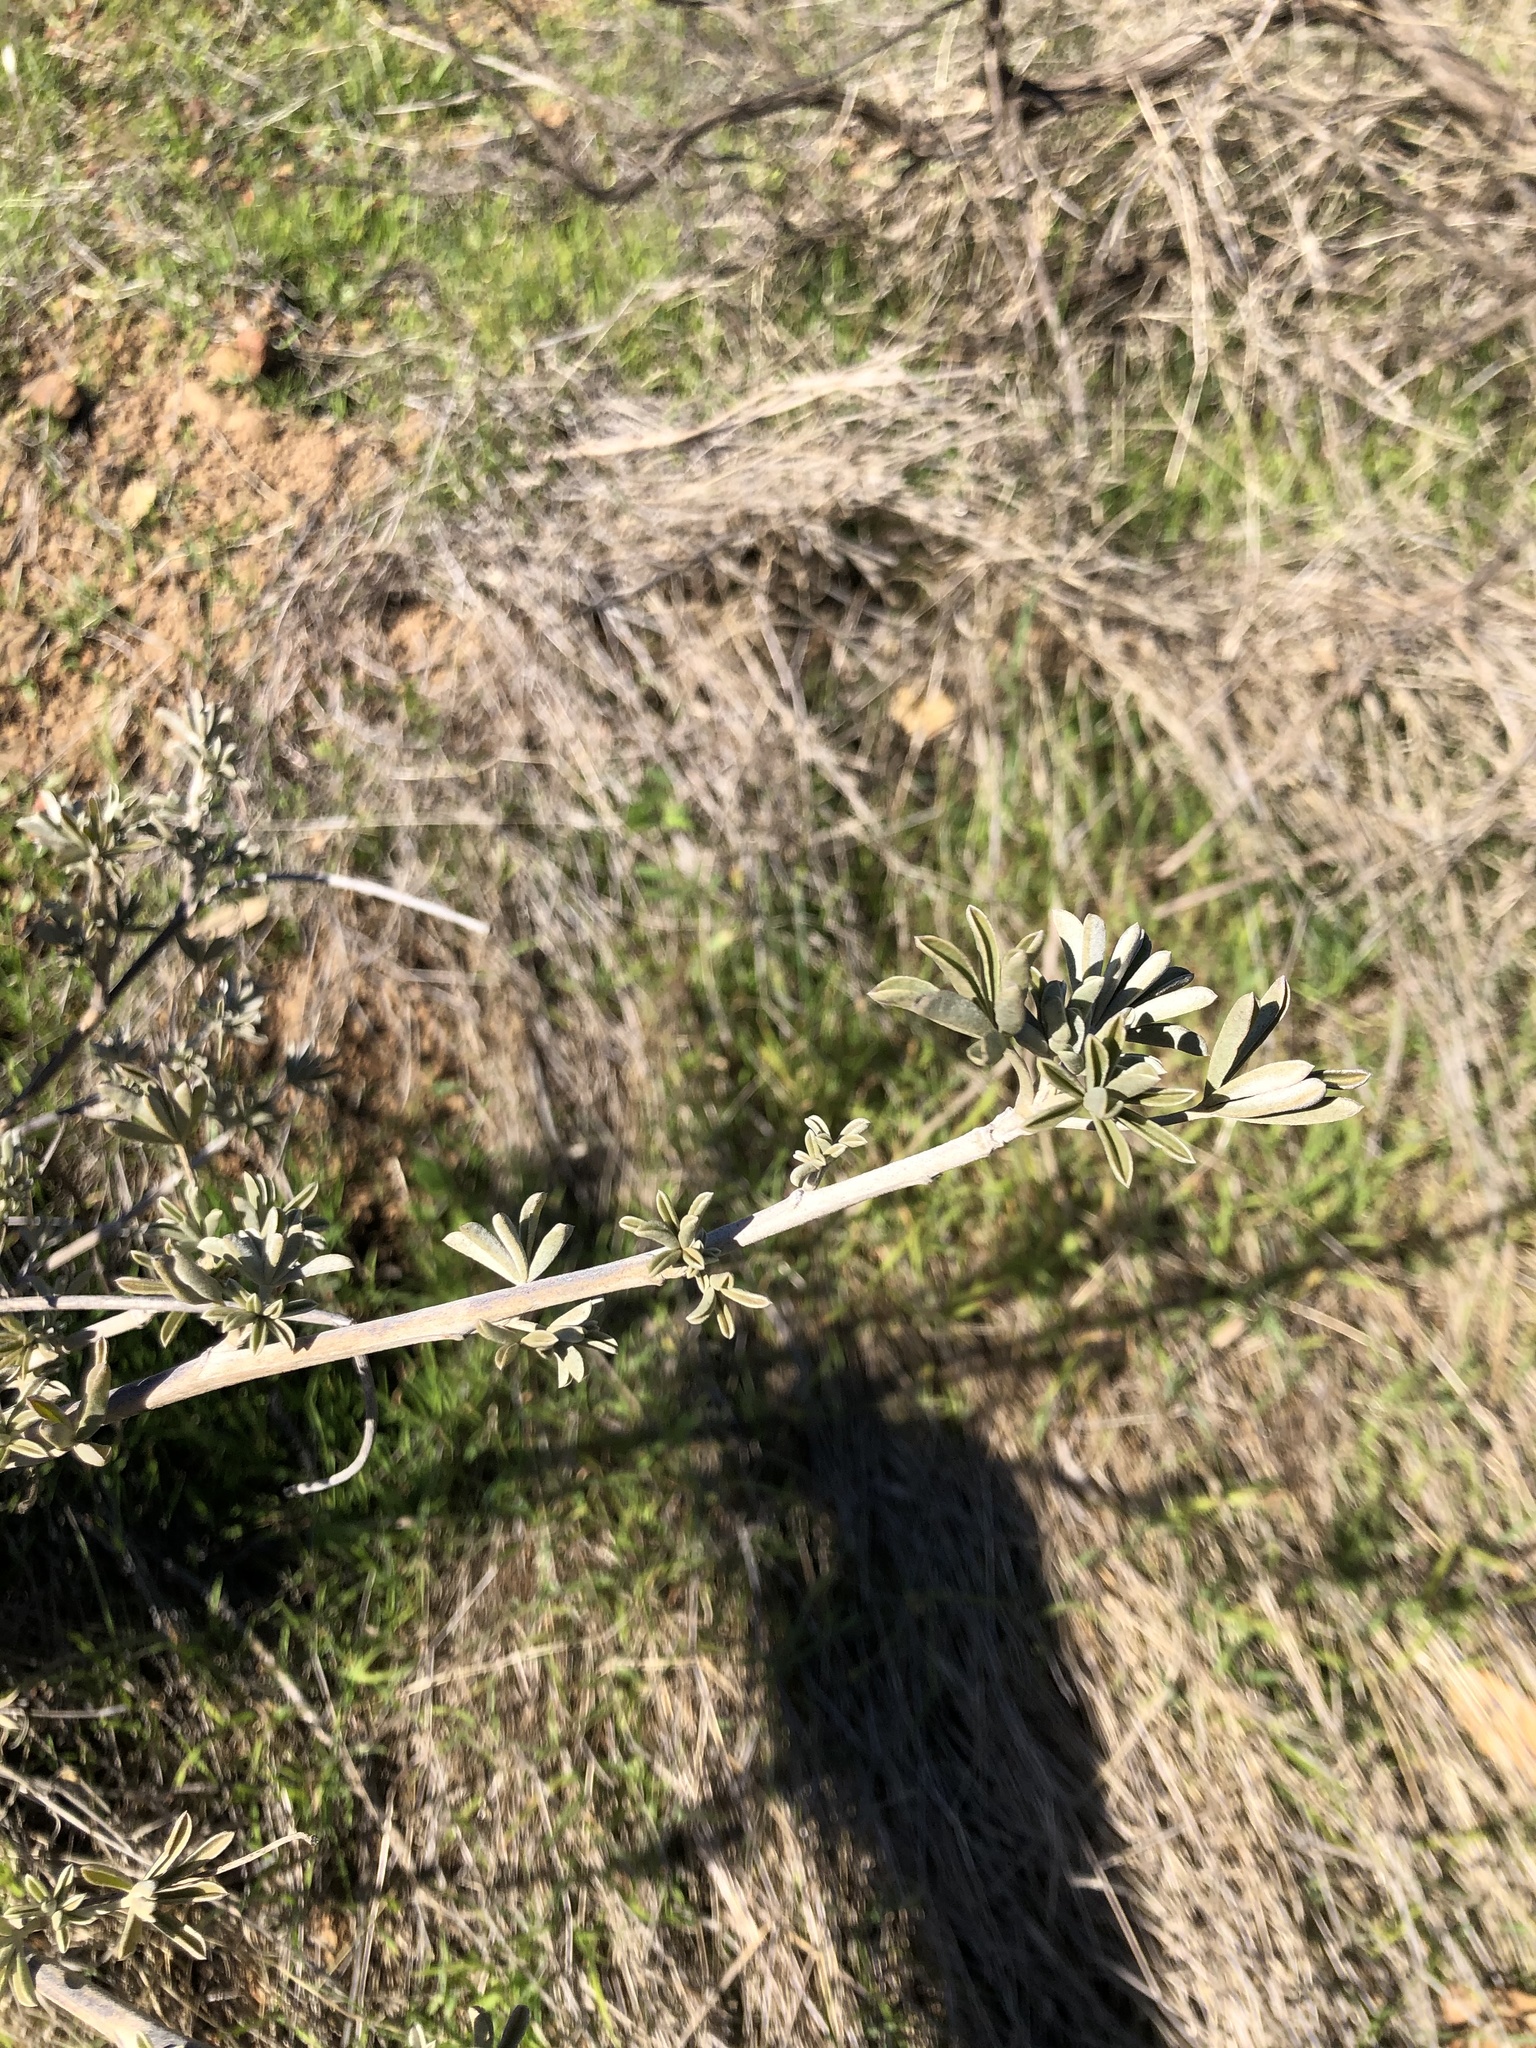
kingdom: Plantae
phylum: Tracheophyta
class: Magnoliopsida
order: Fabales
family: Fabaceae
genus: Lupinus
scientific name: Lupinus albifrons
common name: Foothill lupine
